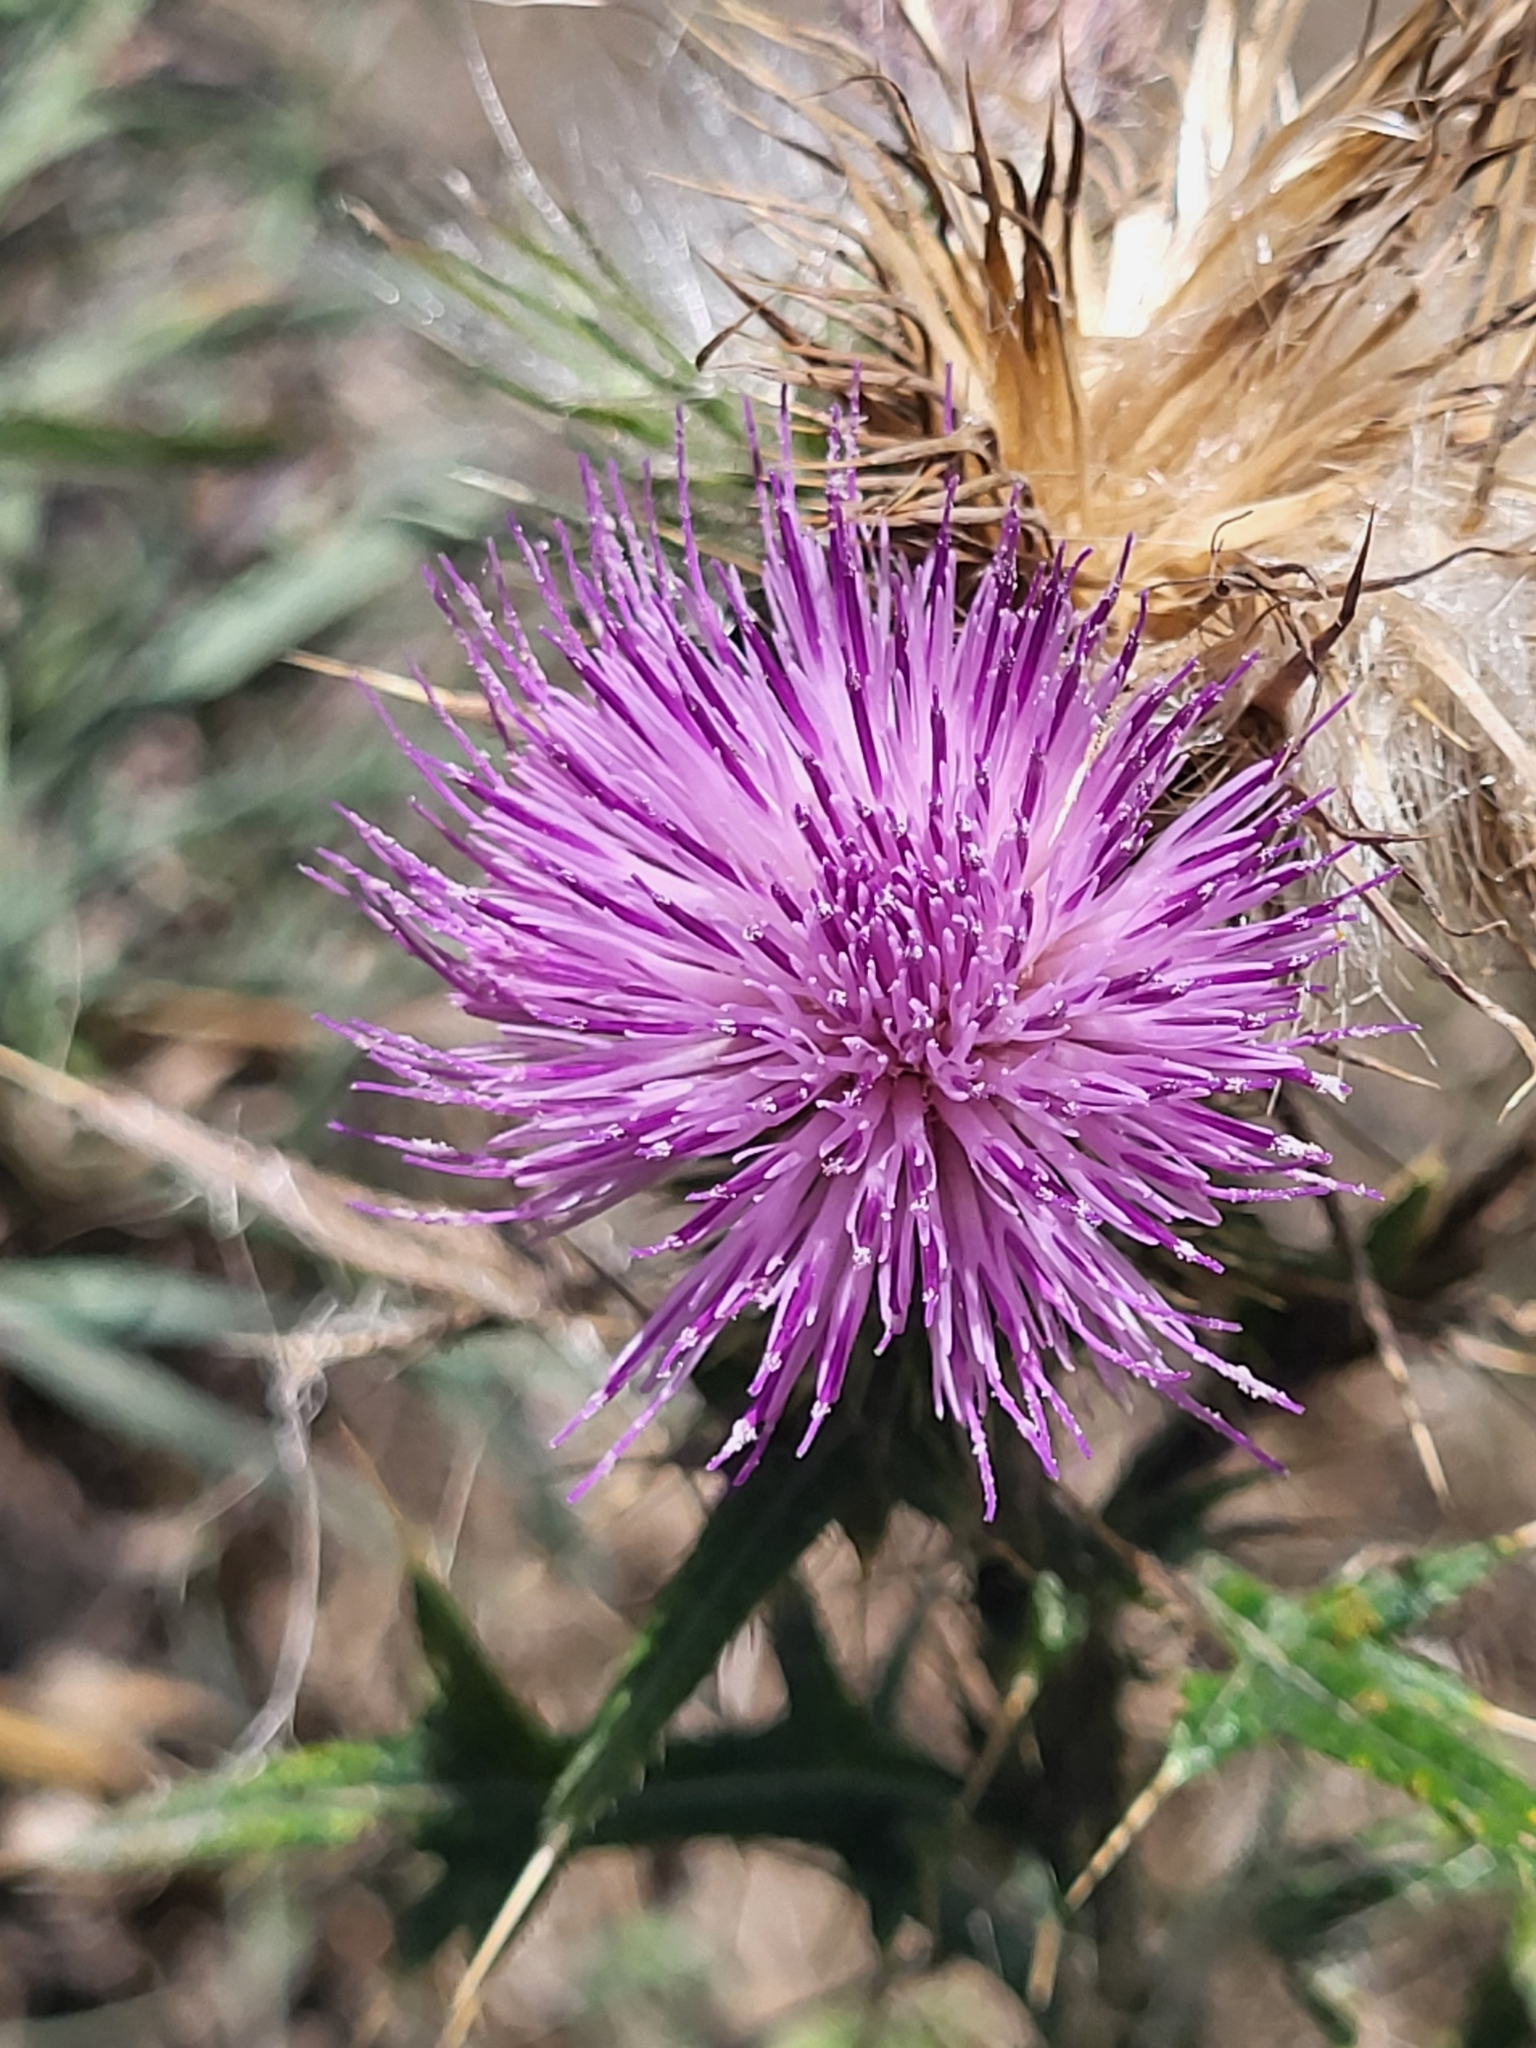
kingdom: Plantae
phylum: Tracheophyta
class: Magnoliopsida
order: Asterales
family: Asteraceae
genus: Cirsium
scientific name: Cirsium vulgare
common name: Bull thistle
